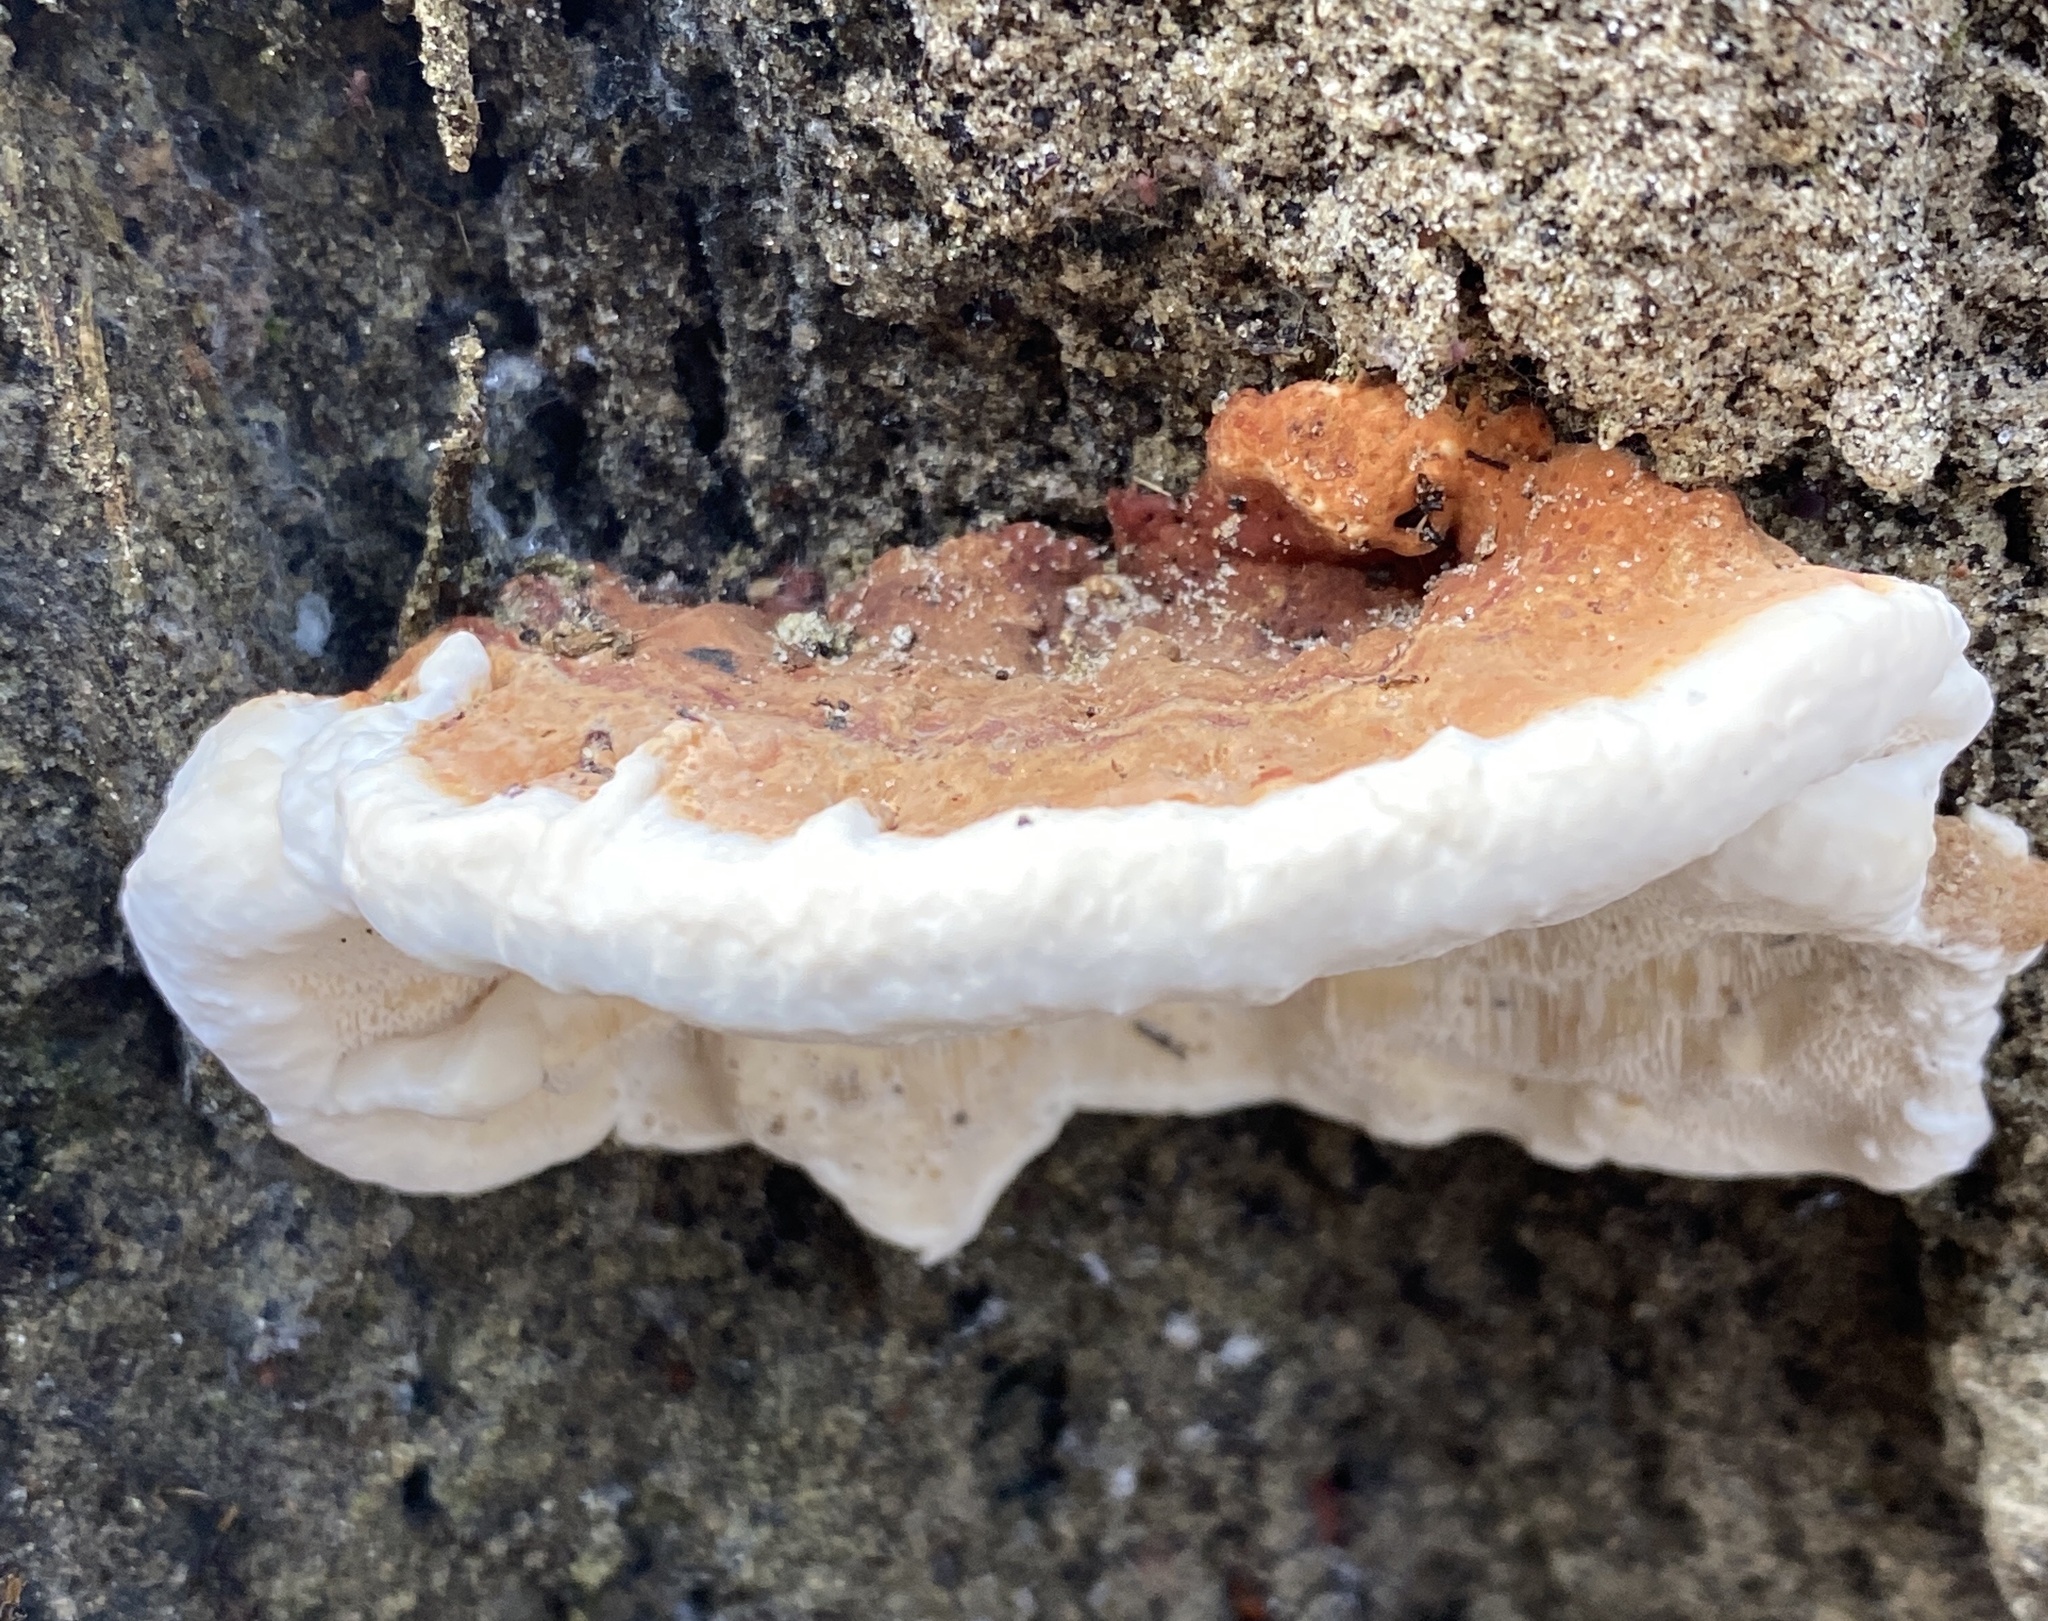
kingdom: Fungi
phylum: Basidiomycota
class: Agaricomycetes
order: Polyporales
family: Fomitopsidaceae
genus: Fomitopsis
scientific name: Fomitopsis pinicola
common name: Red-belted bracket
